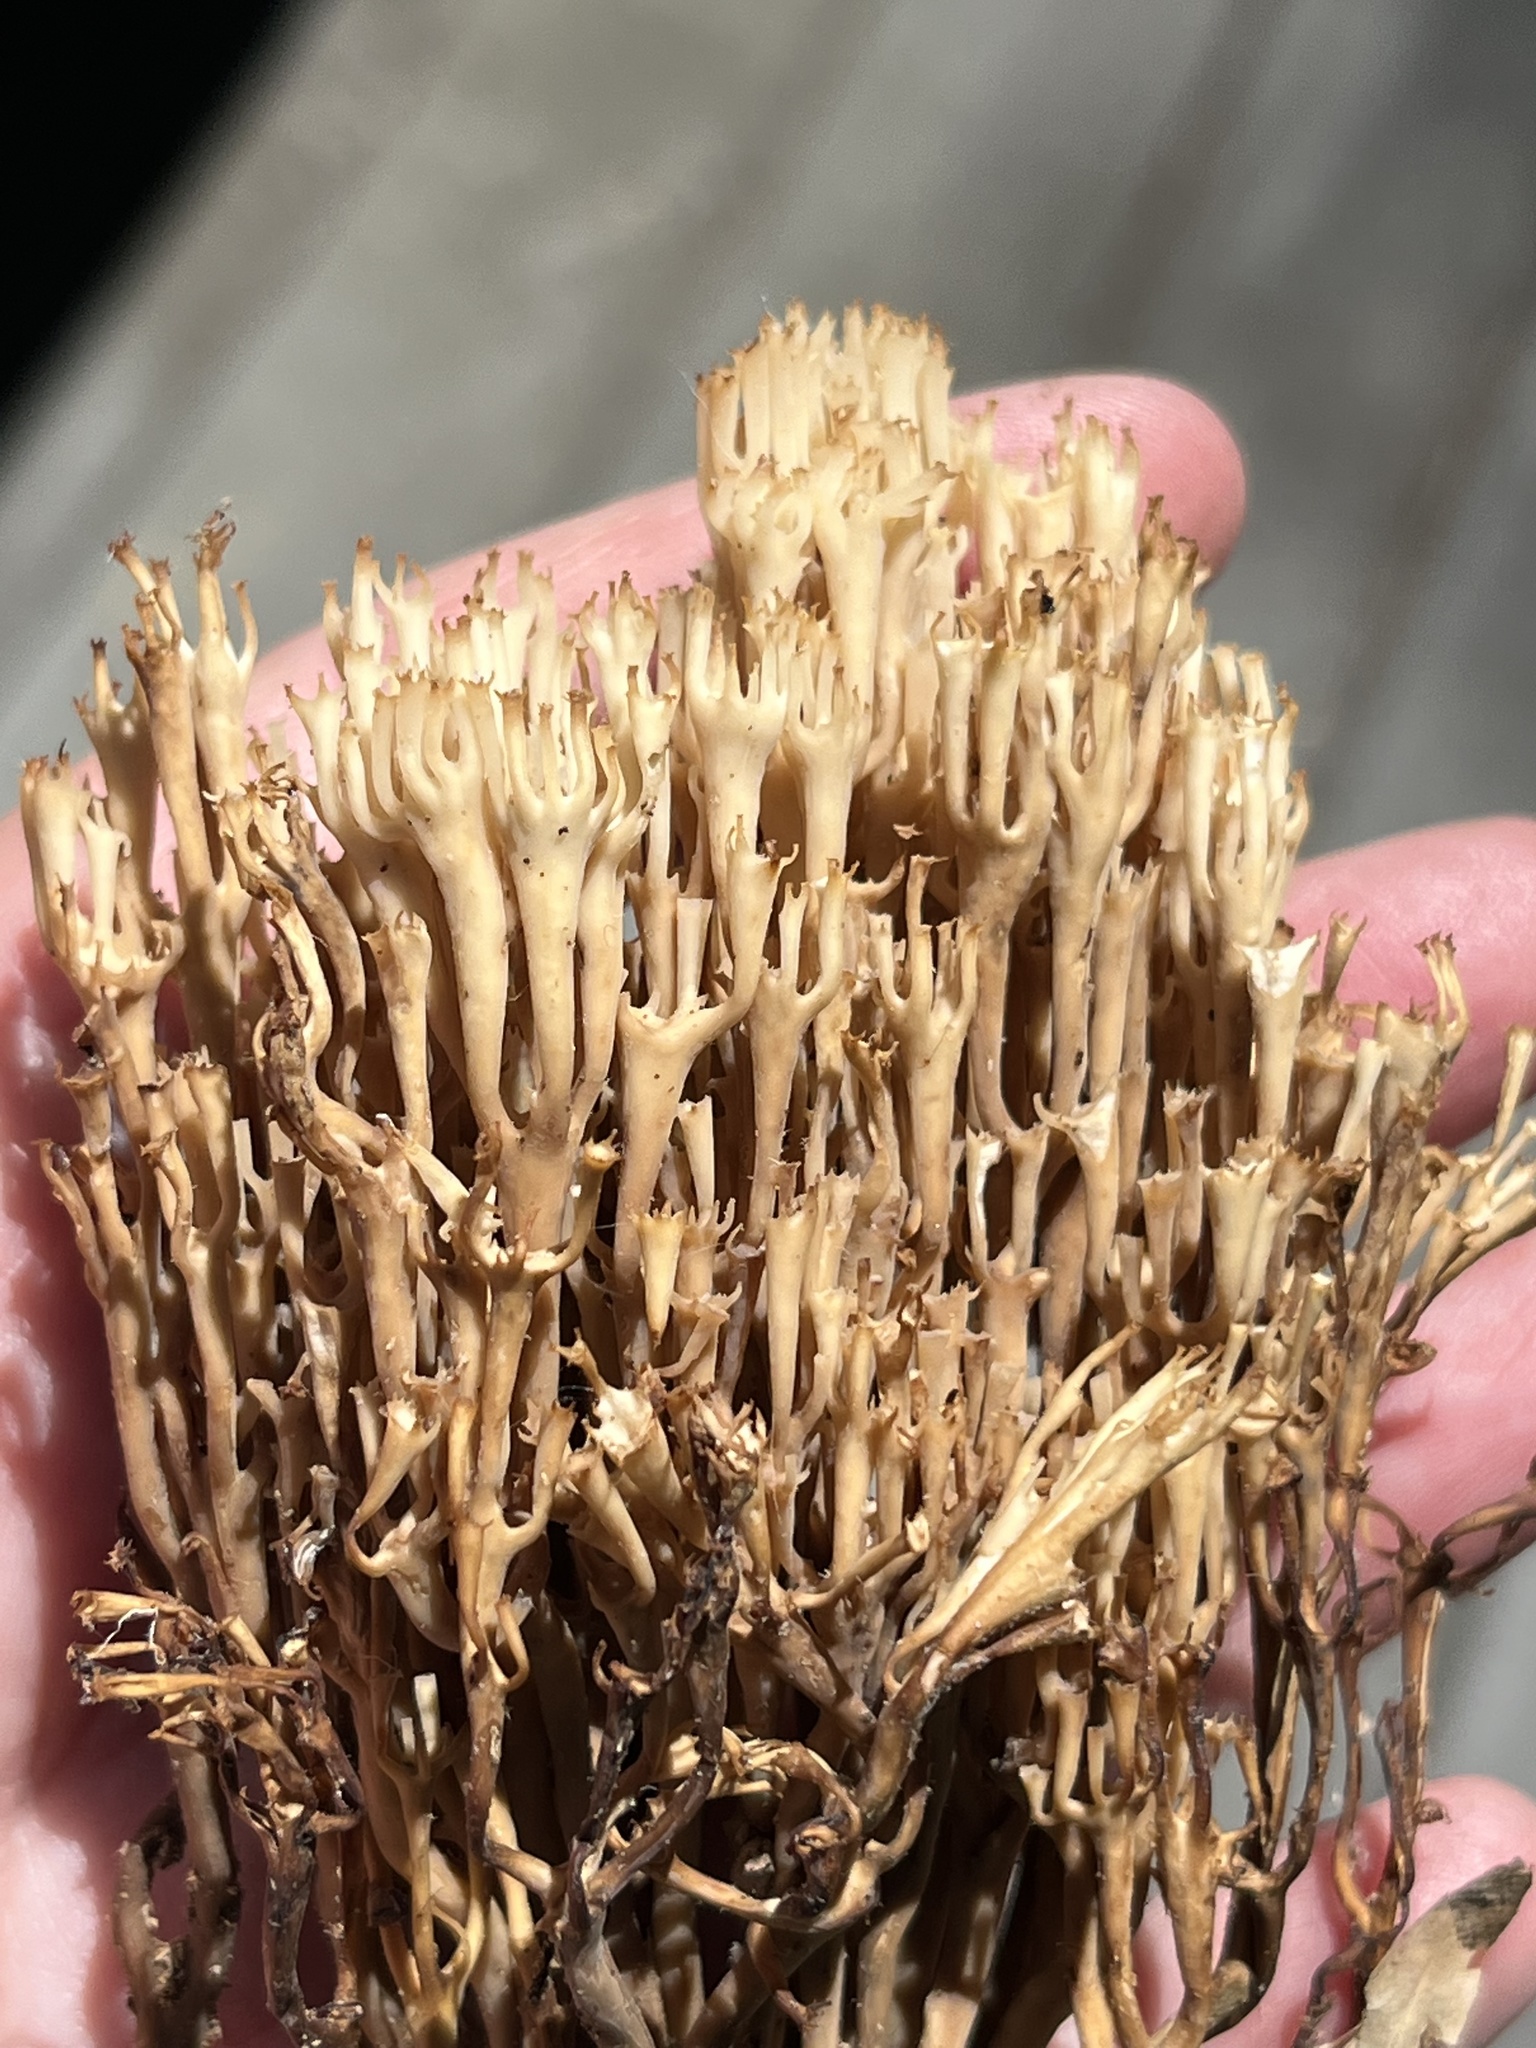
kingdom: Fungi
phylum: Basidiomycota
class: Agaricomycetes
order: Russulales
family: Auriscalpiaceae
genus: Artomyces
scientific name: Artomyces pyxidatus
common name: Crown-tipped coral fungus
